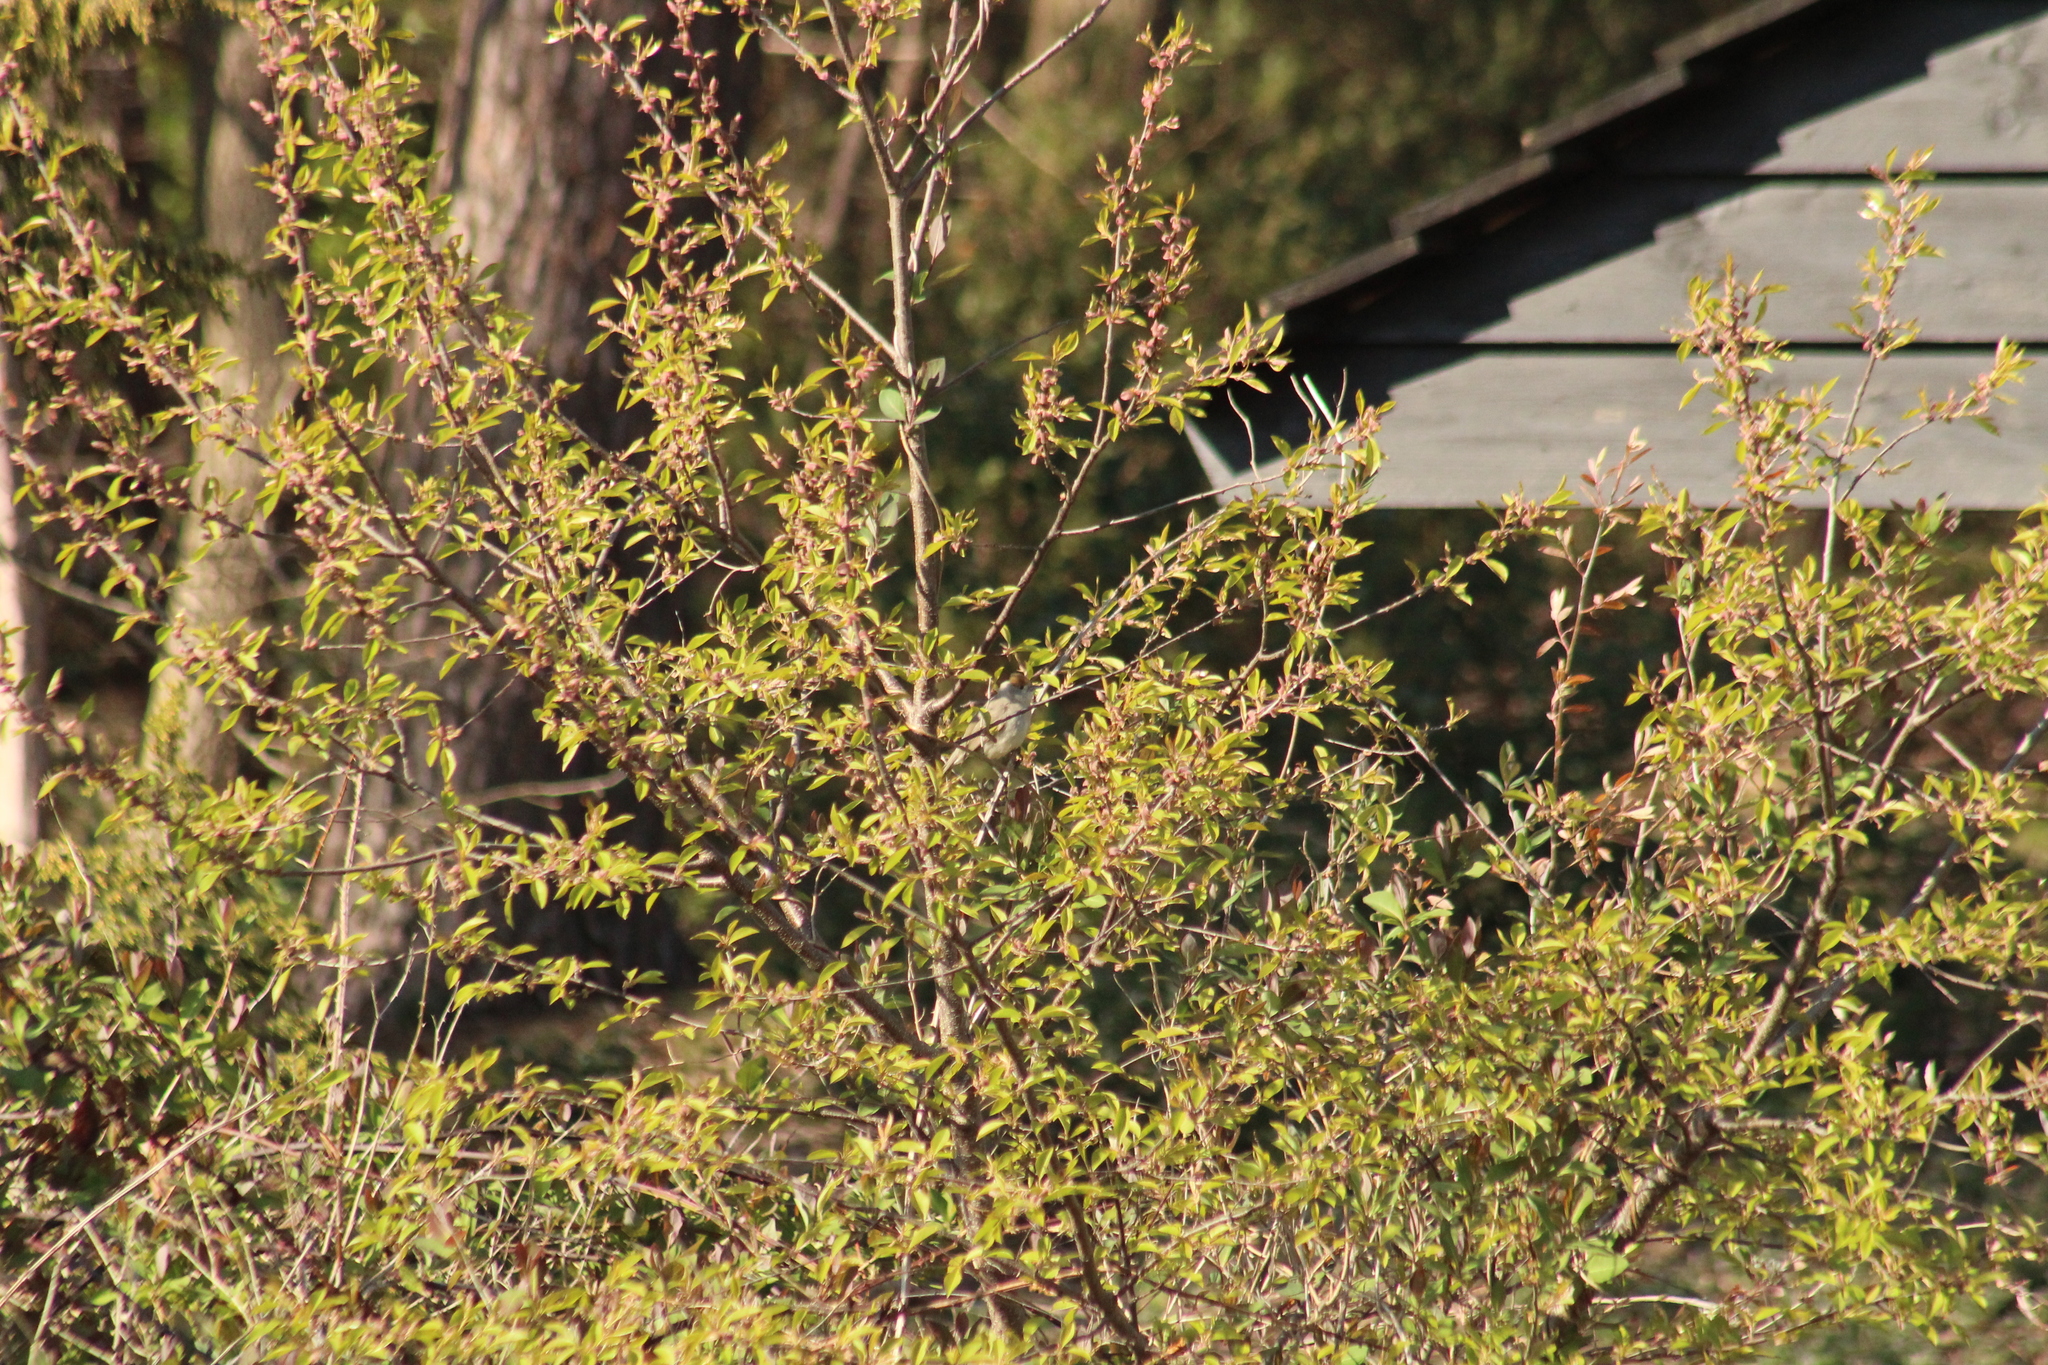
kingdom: Animalia
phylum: Chordata
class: Aves
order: Passeriformes
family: Sylviidae
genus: Sylvia
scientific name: Sylvia atricapilla
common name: Eurasian blackcap
